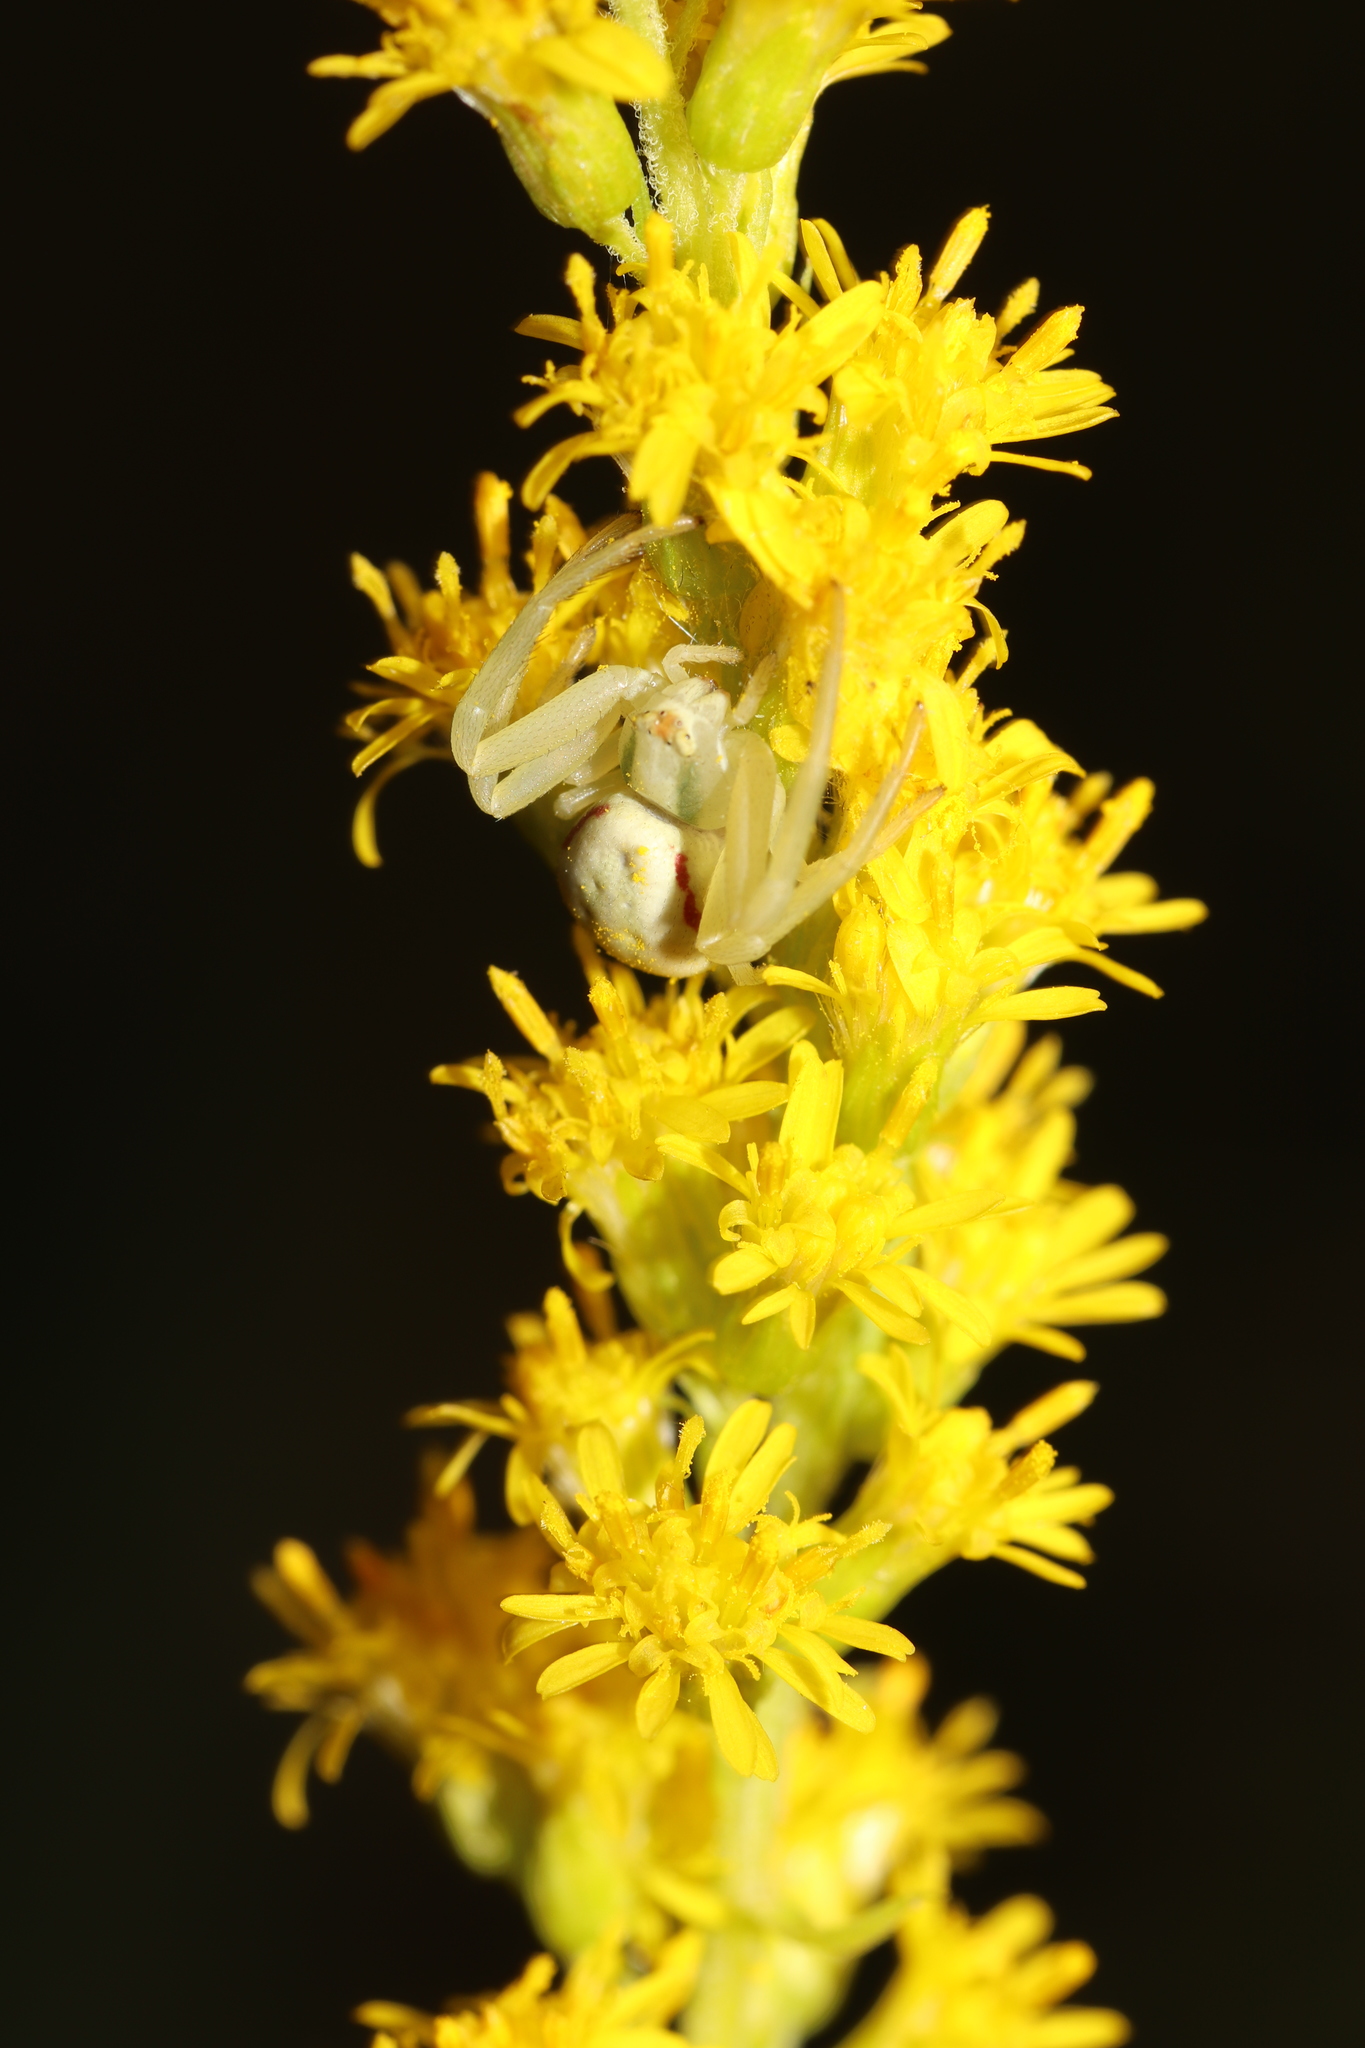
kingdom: Animalia
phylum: Arthropoda
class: Arachnida
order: Araneae
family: Thomisidae
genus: Misumena
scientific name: Misumena vatia
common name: Goldenrod crab spider
